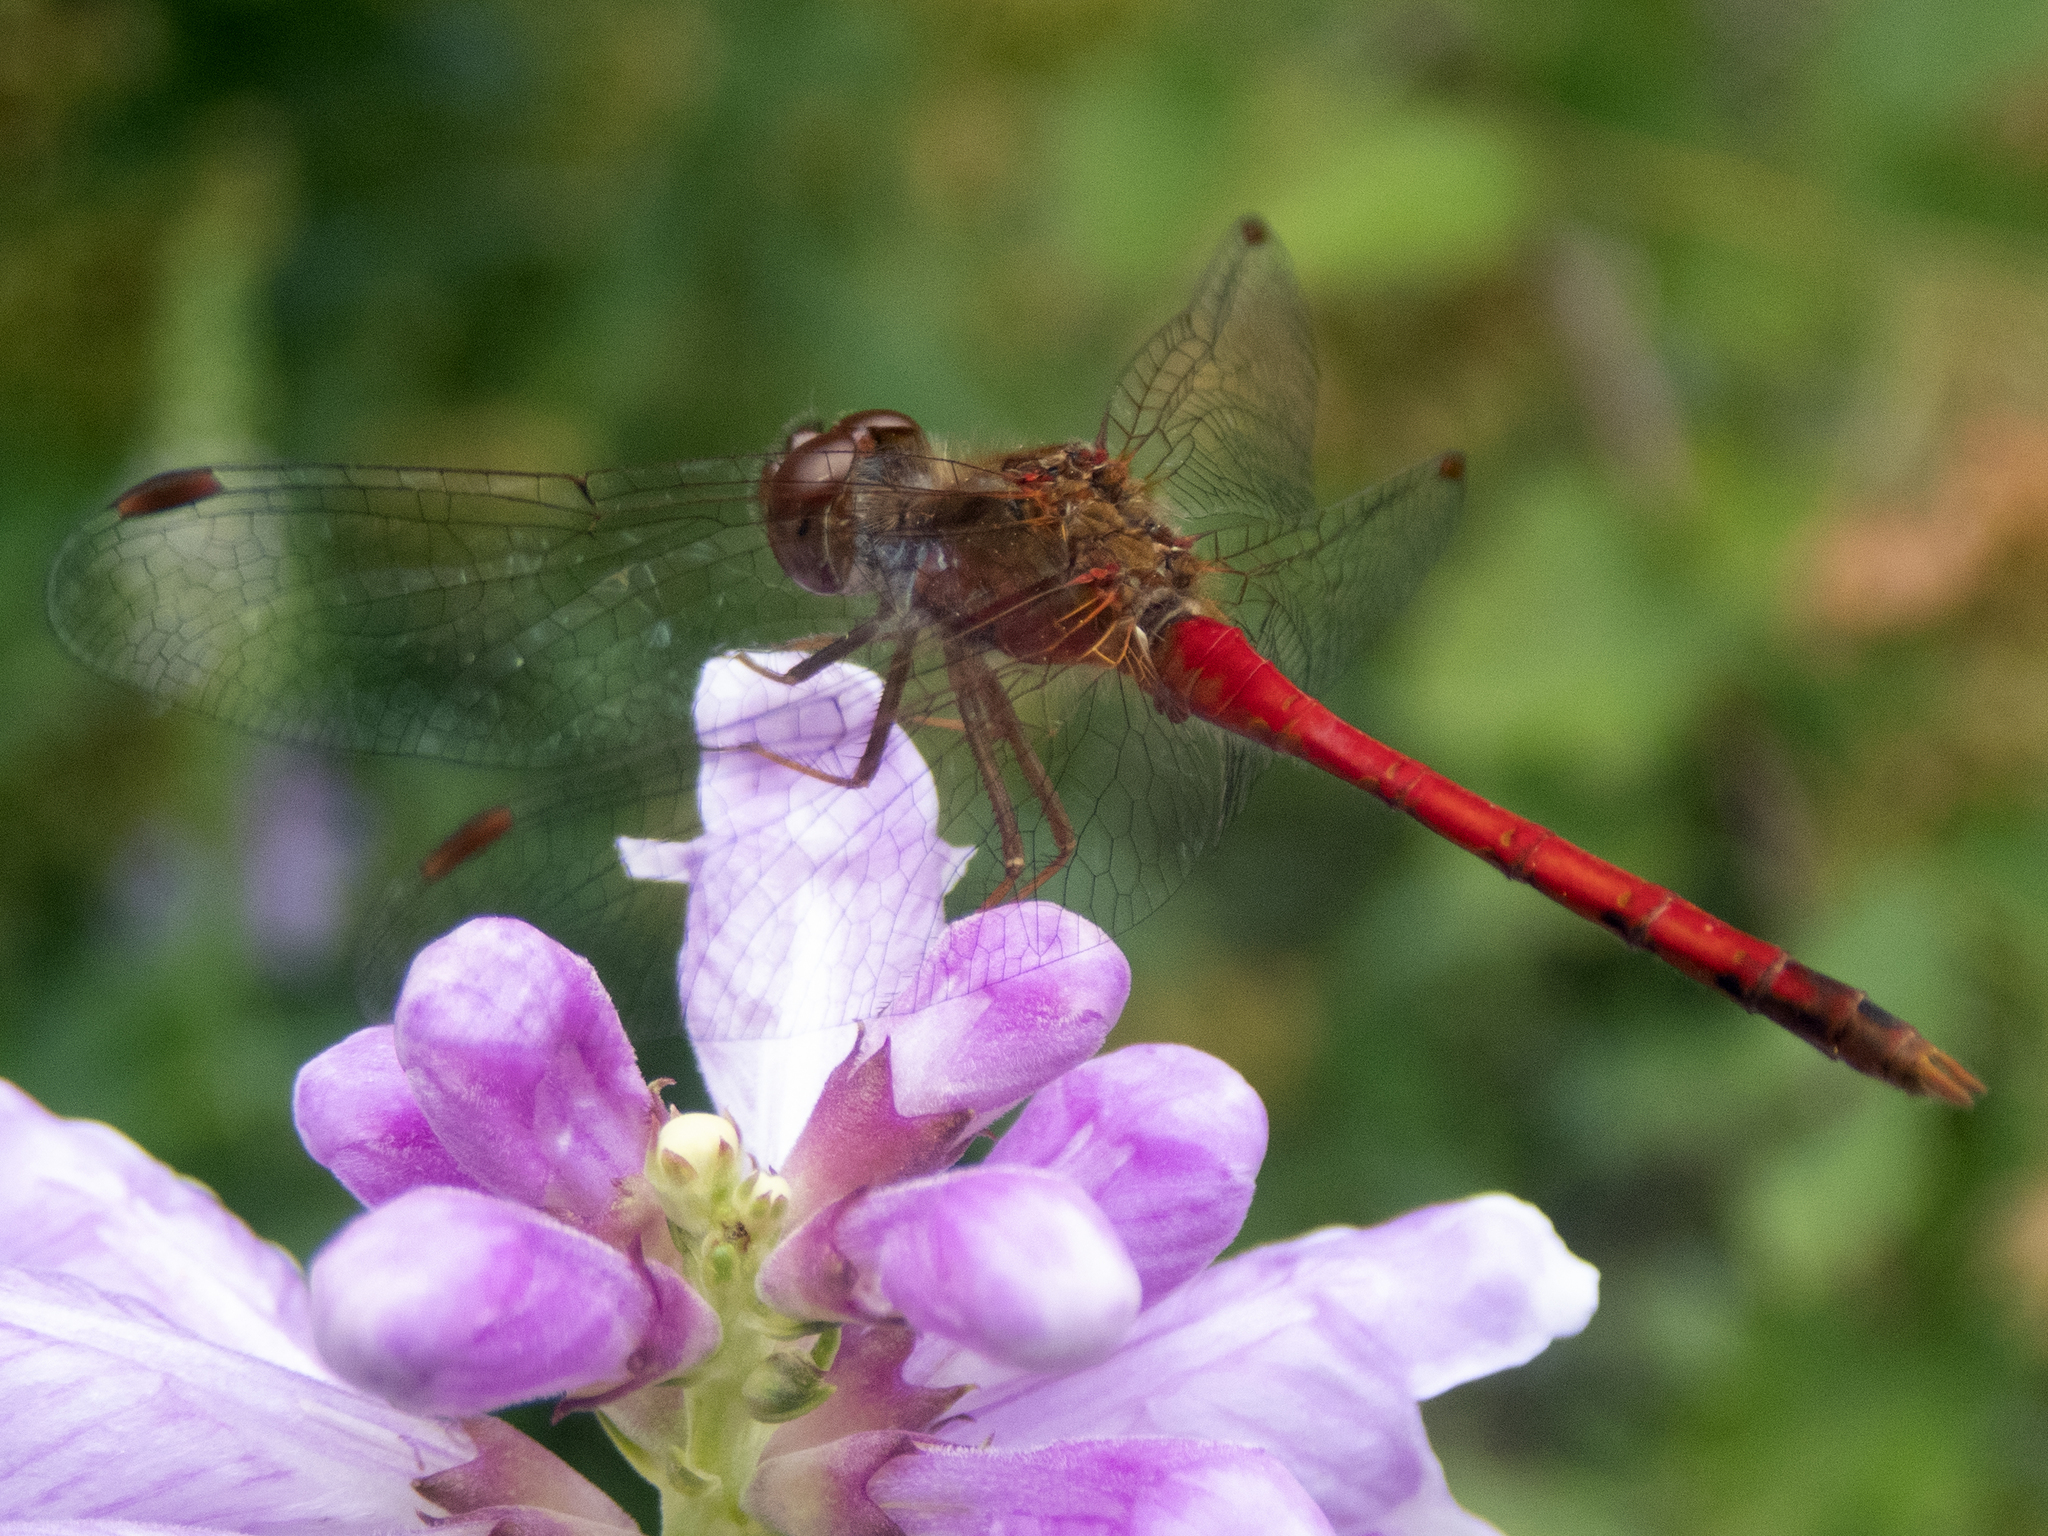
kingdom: Animalia
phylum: Arthropoda
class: Insecta
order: Odonata
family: Libellulidae
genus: Sympetrum
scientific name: Sympetrum vicinum
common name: Autumn meadowhawk
